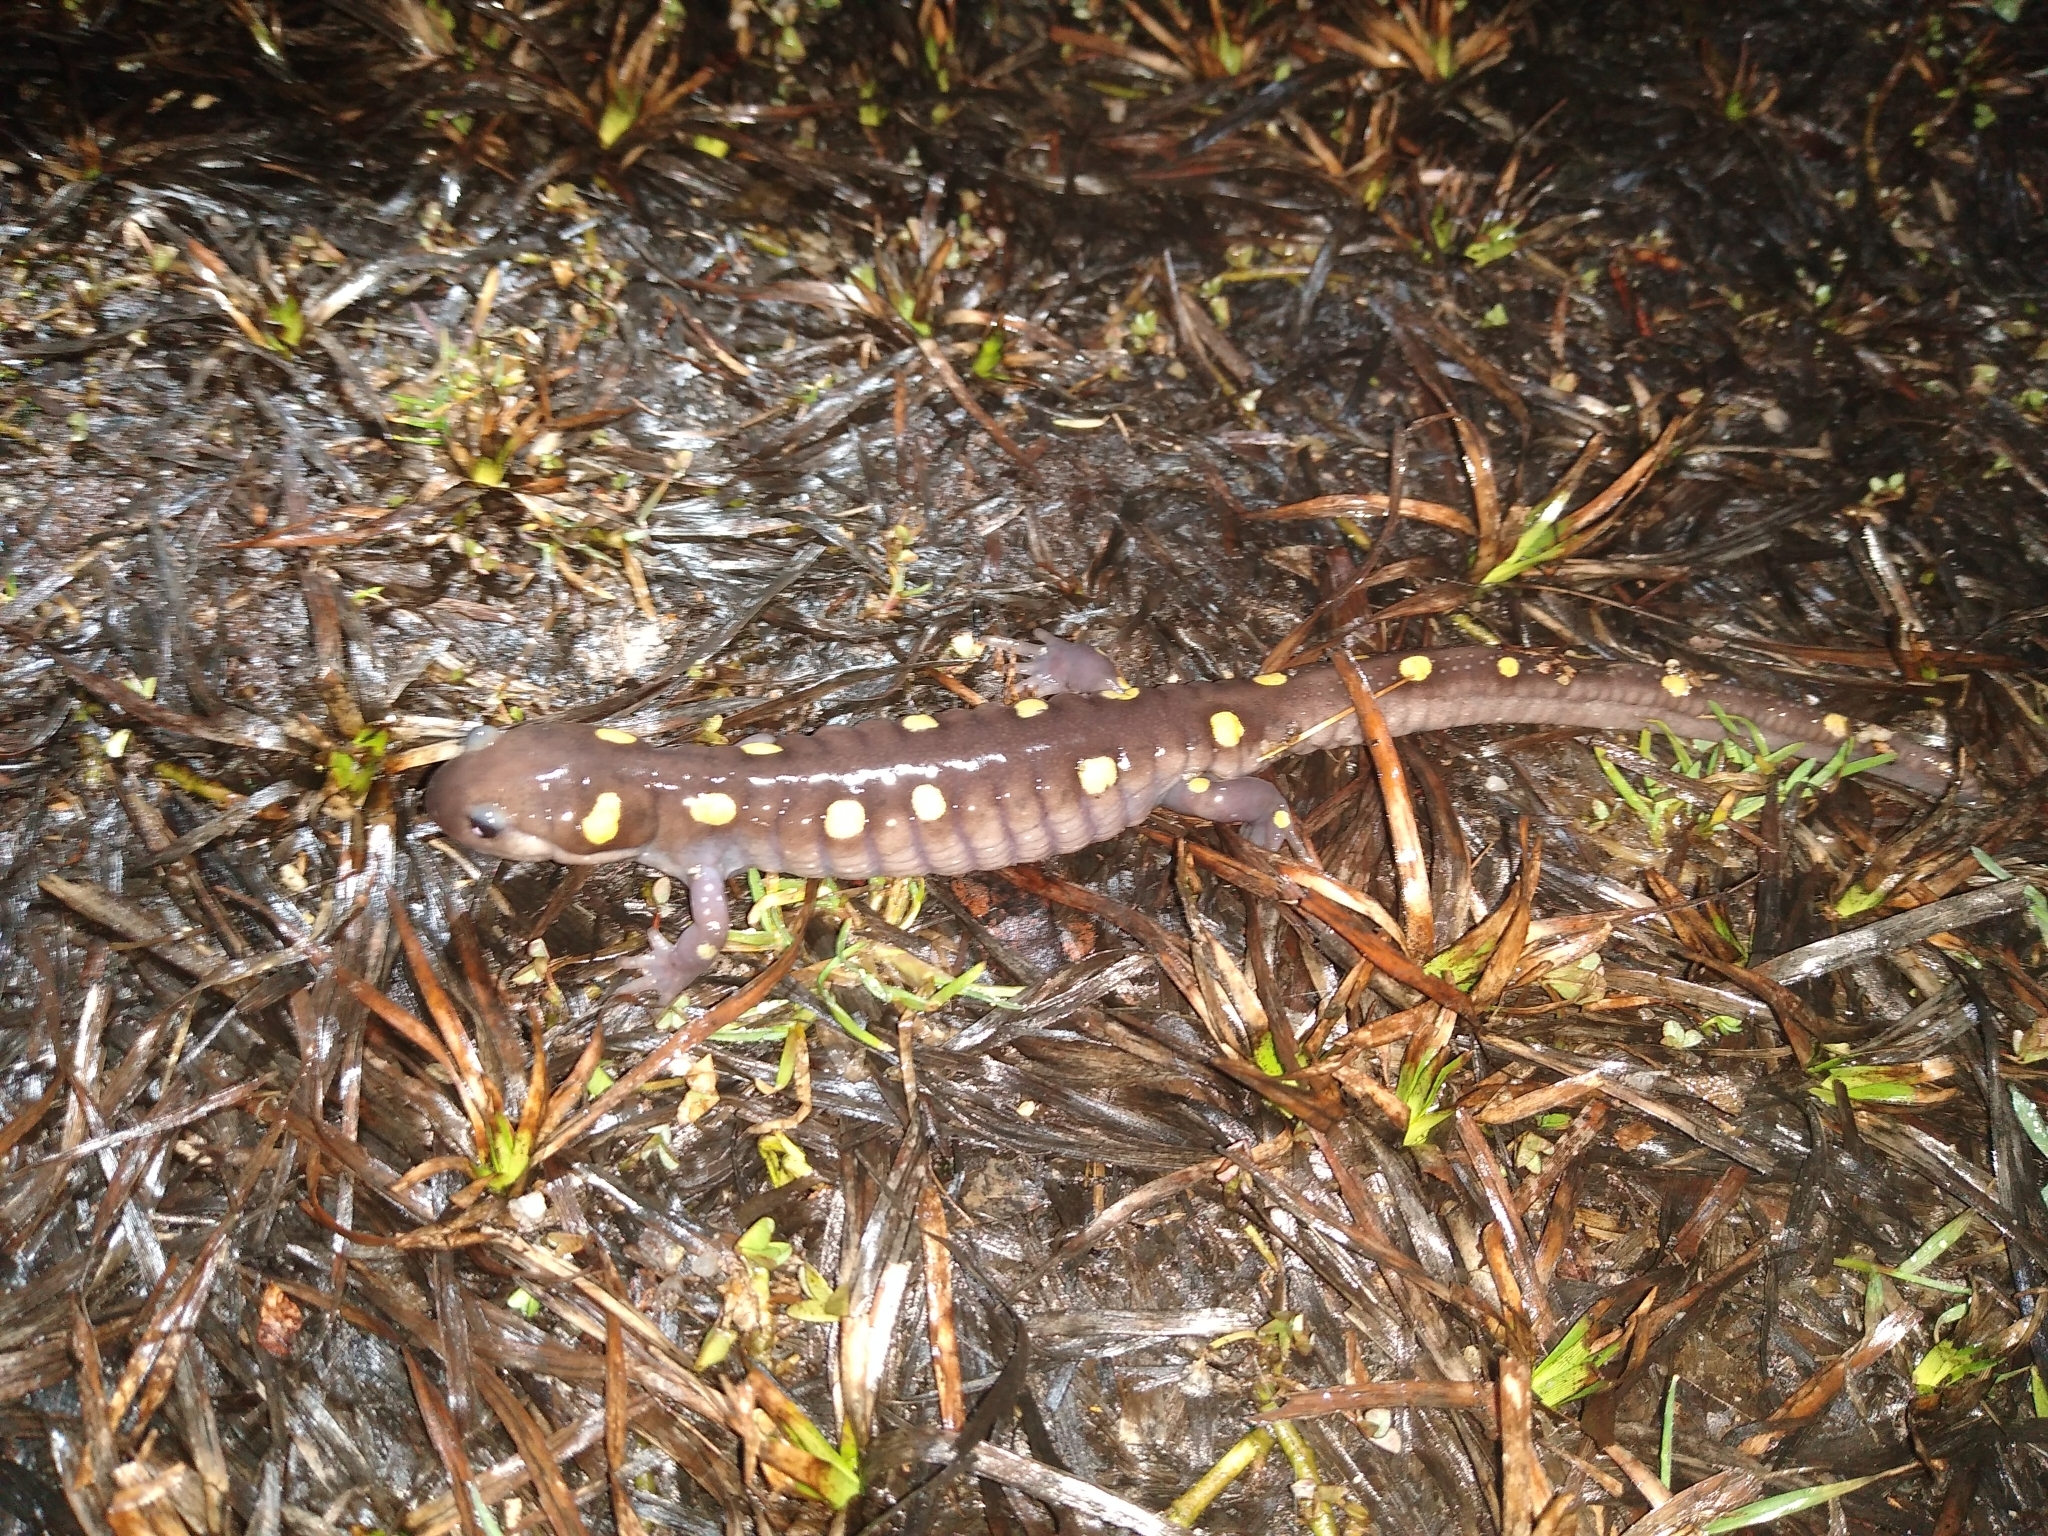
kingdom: Animalia
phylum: Chordata
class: Amphibia
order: Caudata
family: Ambystomatidae
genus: Ambystoma
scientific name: Ambystoma maculatum
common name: Spotted salamander
